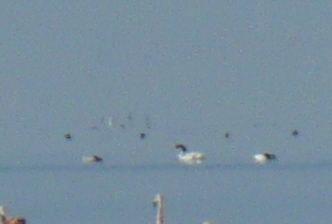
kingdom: Animalia
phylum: Chordata
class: Aves
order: Anseriformes
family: Anatidae
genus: Cygnus
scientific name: Cygnus melancoryphus
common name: Black-necked swan
